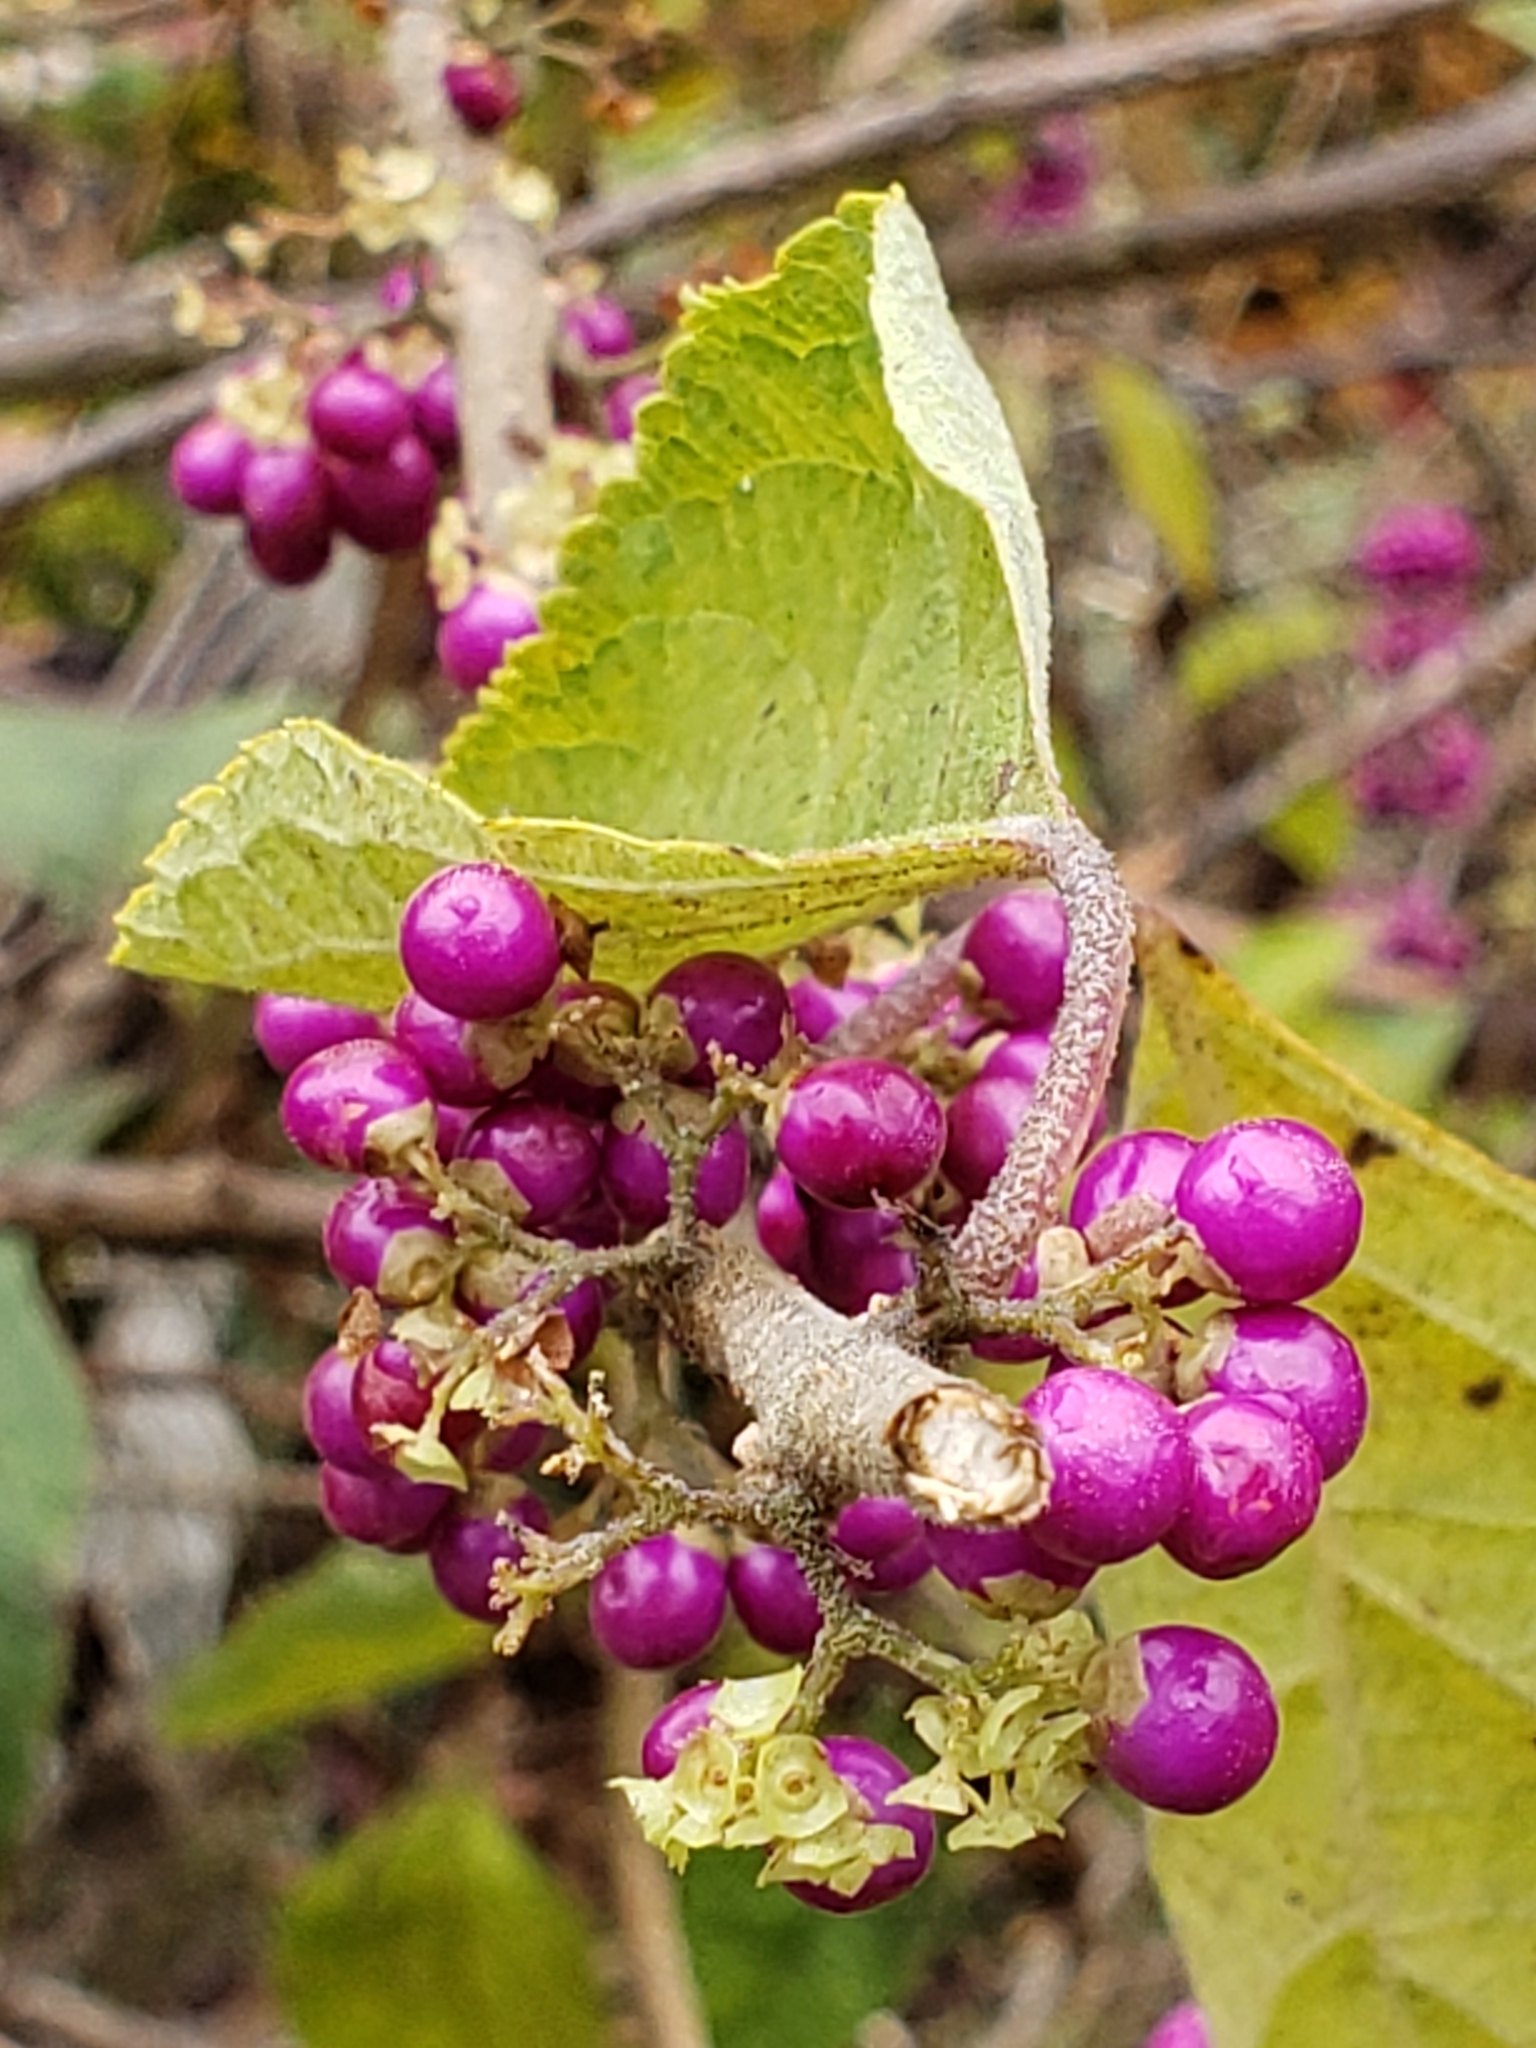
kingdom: Plantae
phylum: Tracheophyta
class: Magnoliopsida
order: Lamiales
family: Lamiaceae
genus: Callicarpa
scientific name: Callicarpa americana
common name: American beautyberry
